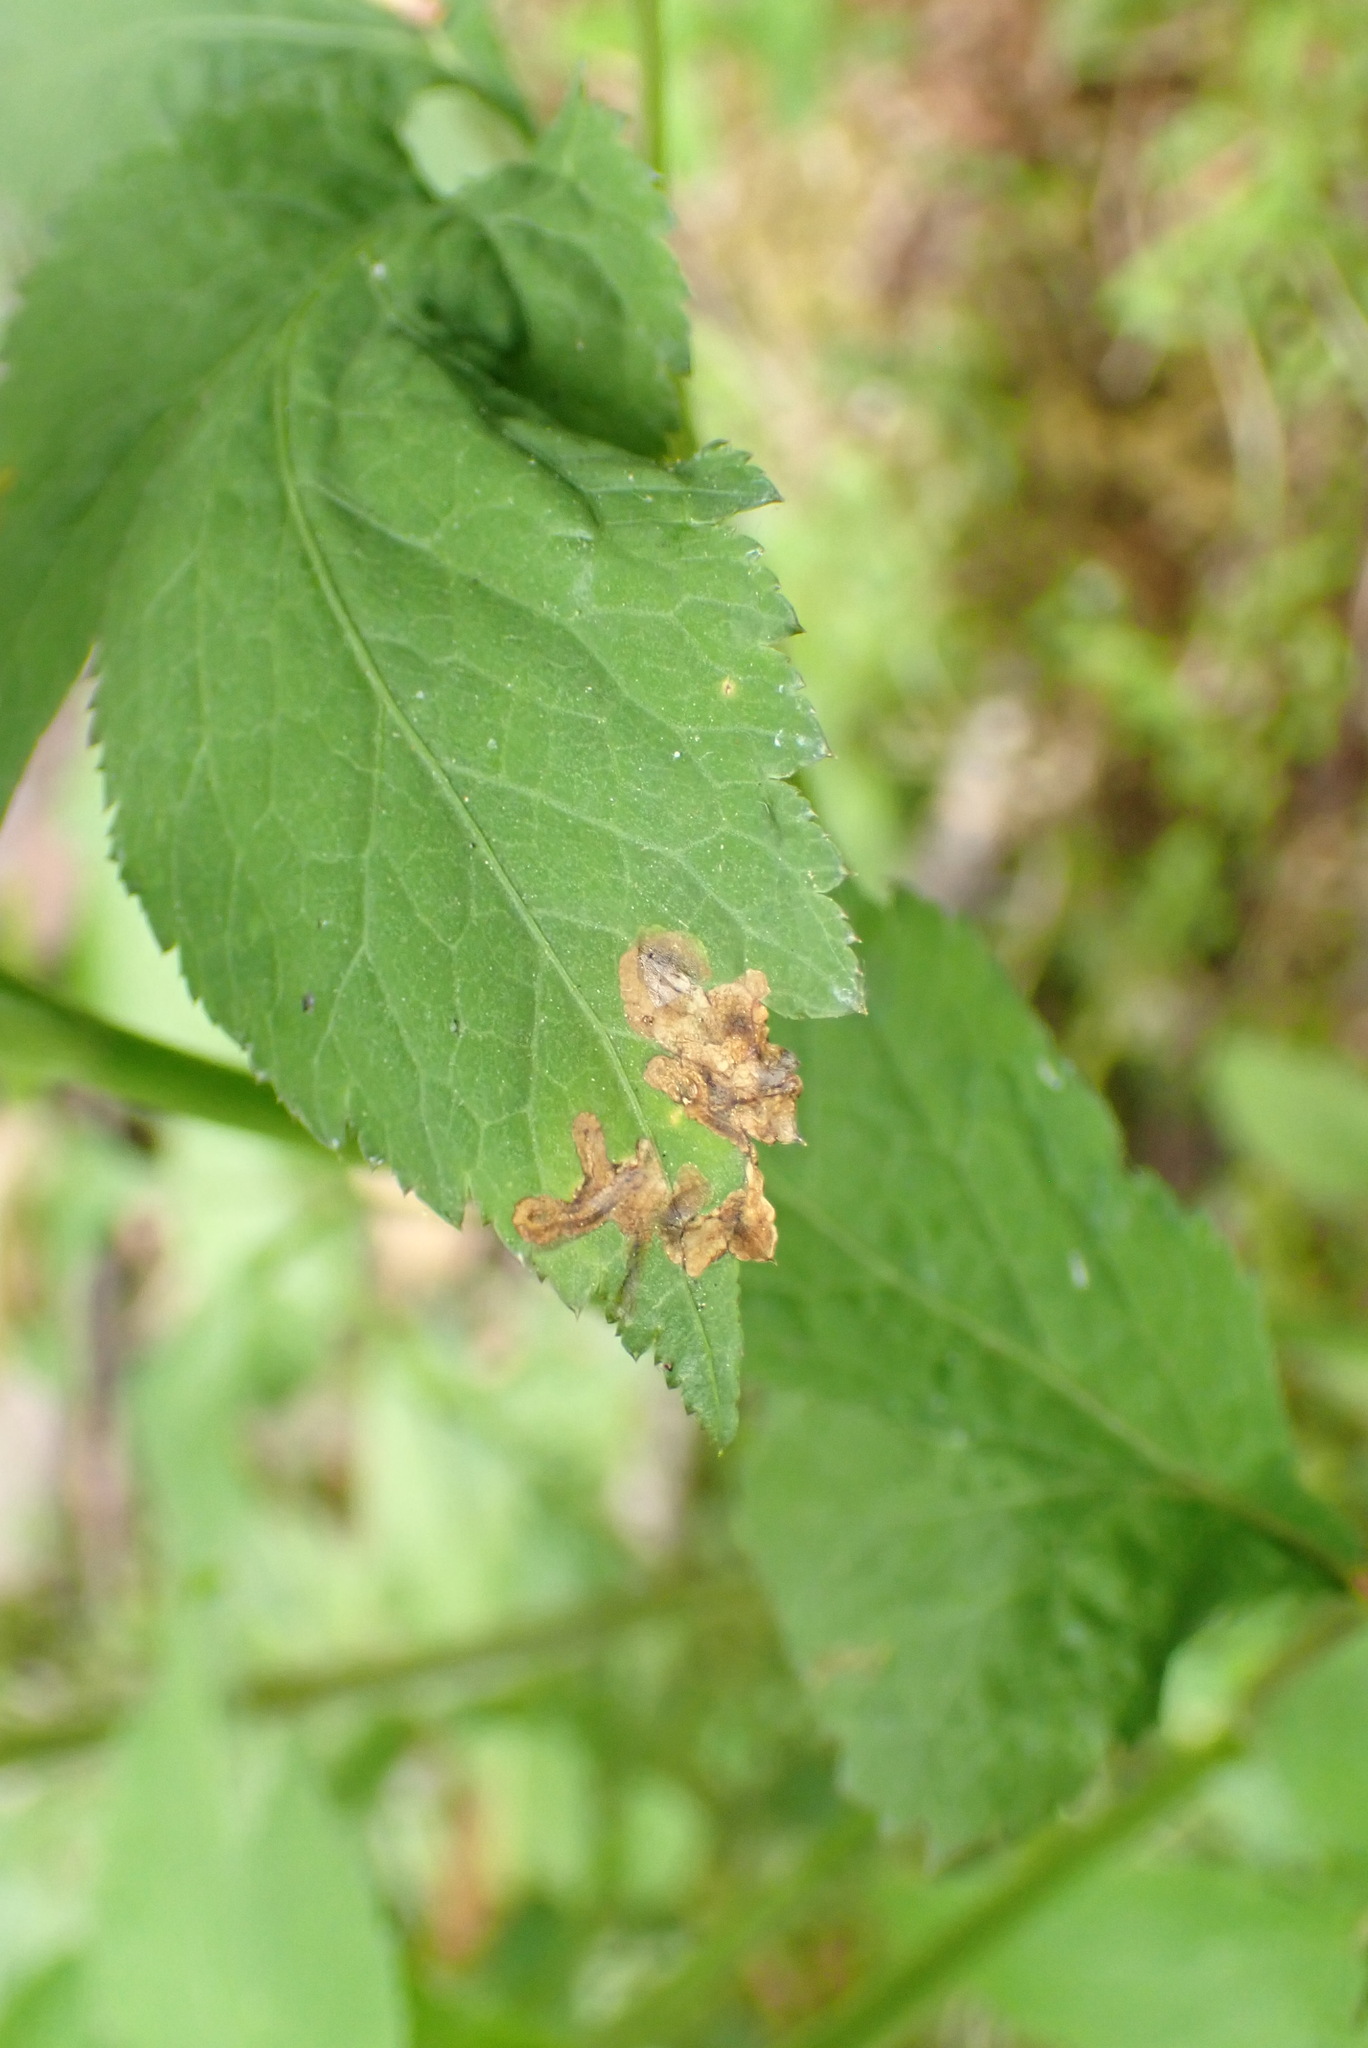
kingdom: Animalia
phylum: Arthropoda
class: Insecta
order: Diptera
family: Tephritidae
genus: Euleia
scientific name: Euleia fratria
